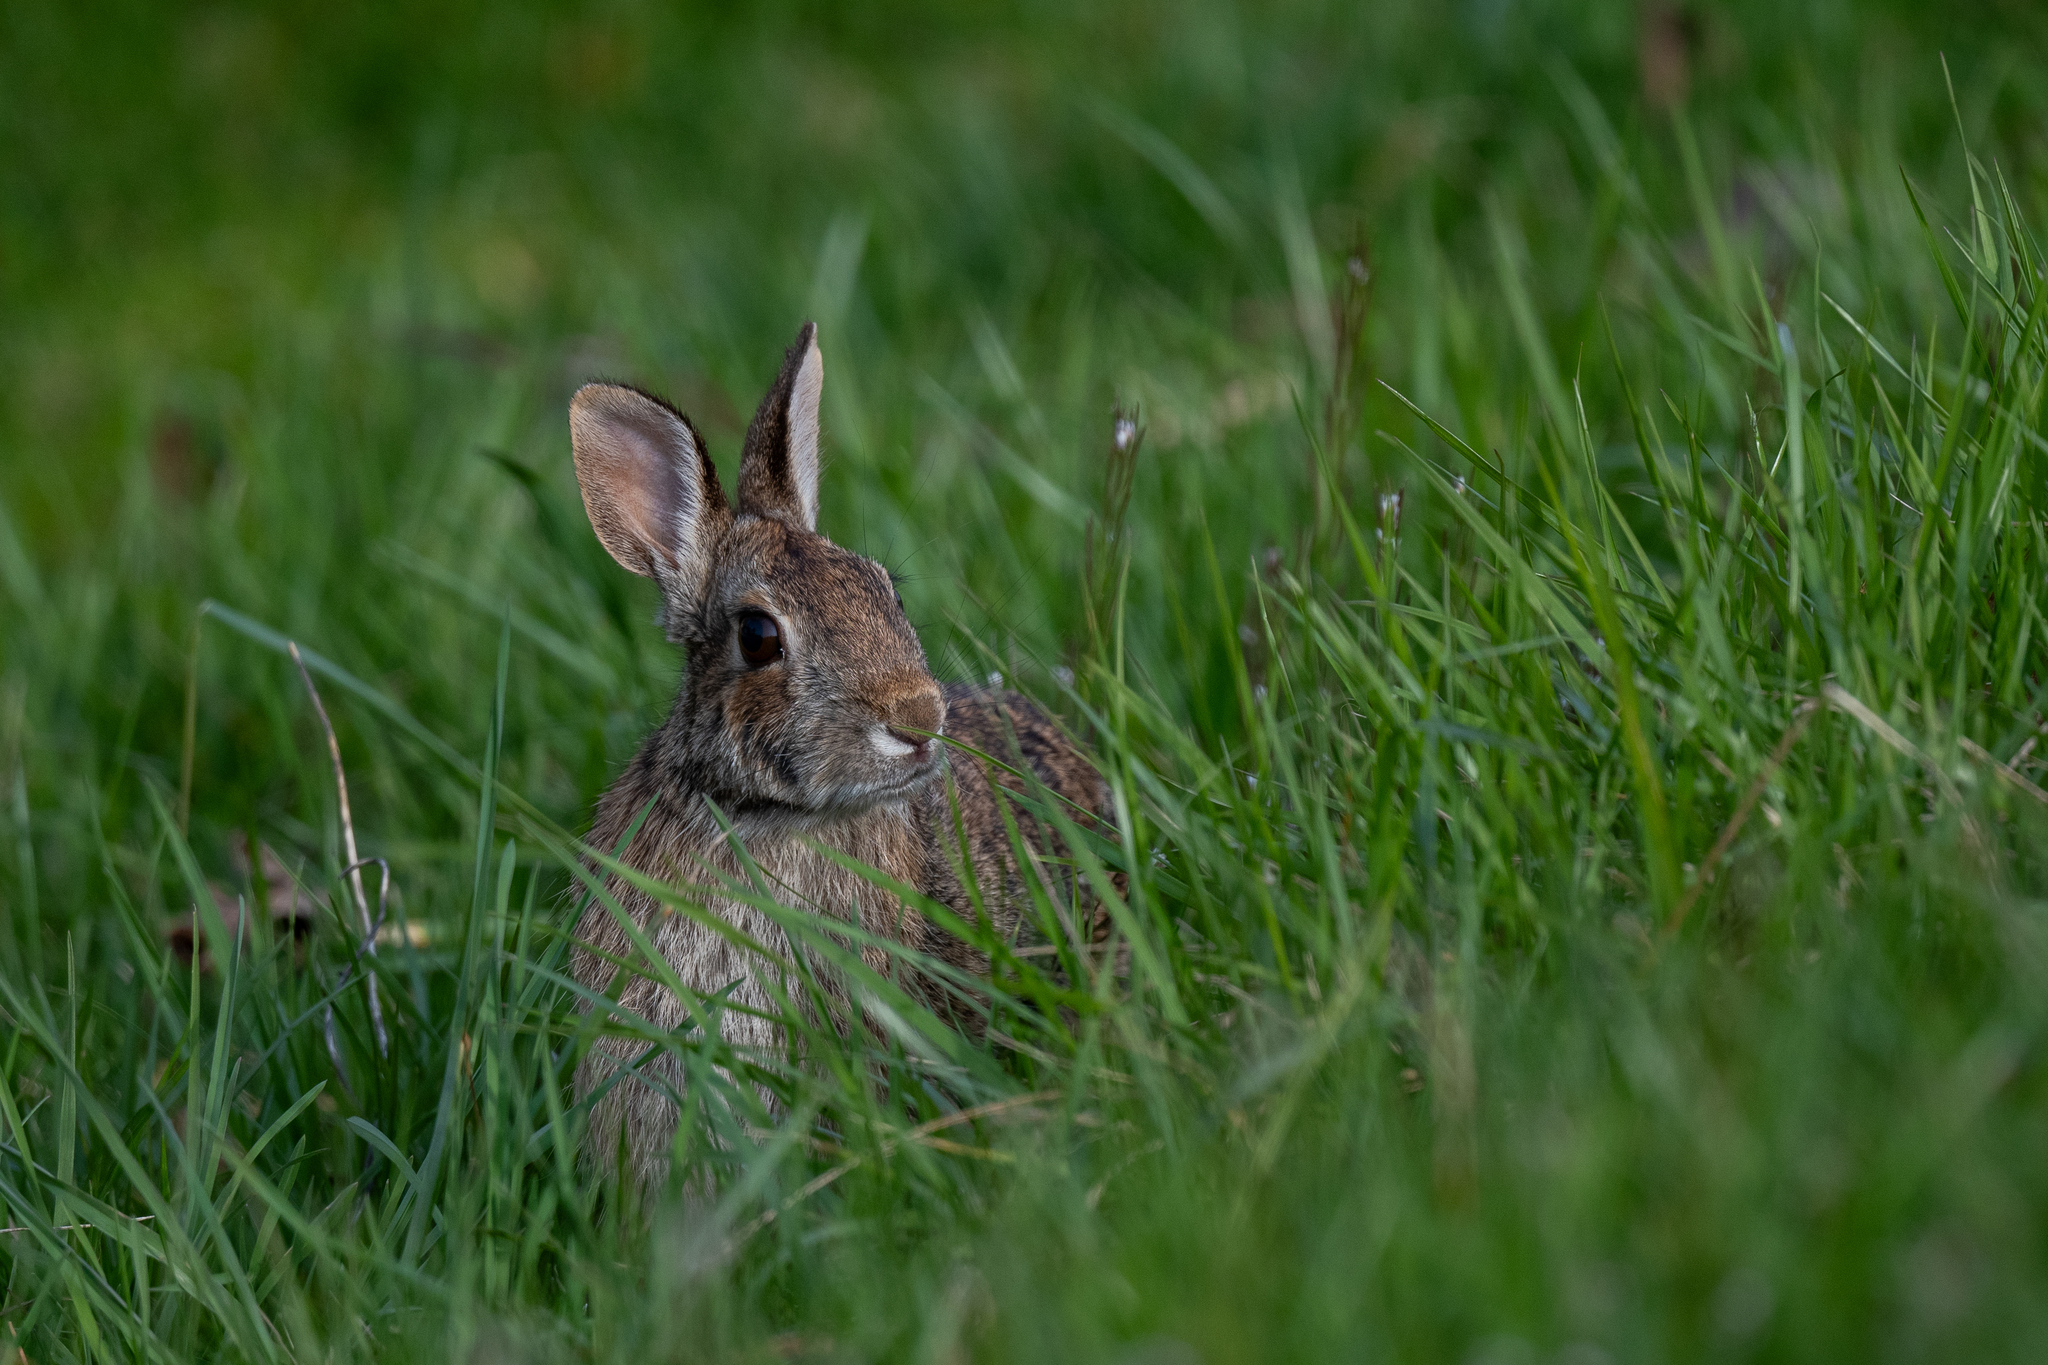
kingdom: Animalia
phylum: Chordata
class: Mammalia
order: Lagomorpha
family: Leporidae
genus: Sylvilagus
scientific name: Sylvilagus floridanus
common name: Eastern cottontail
